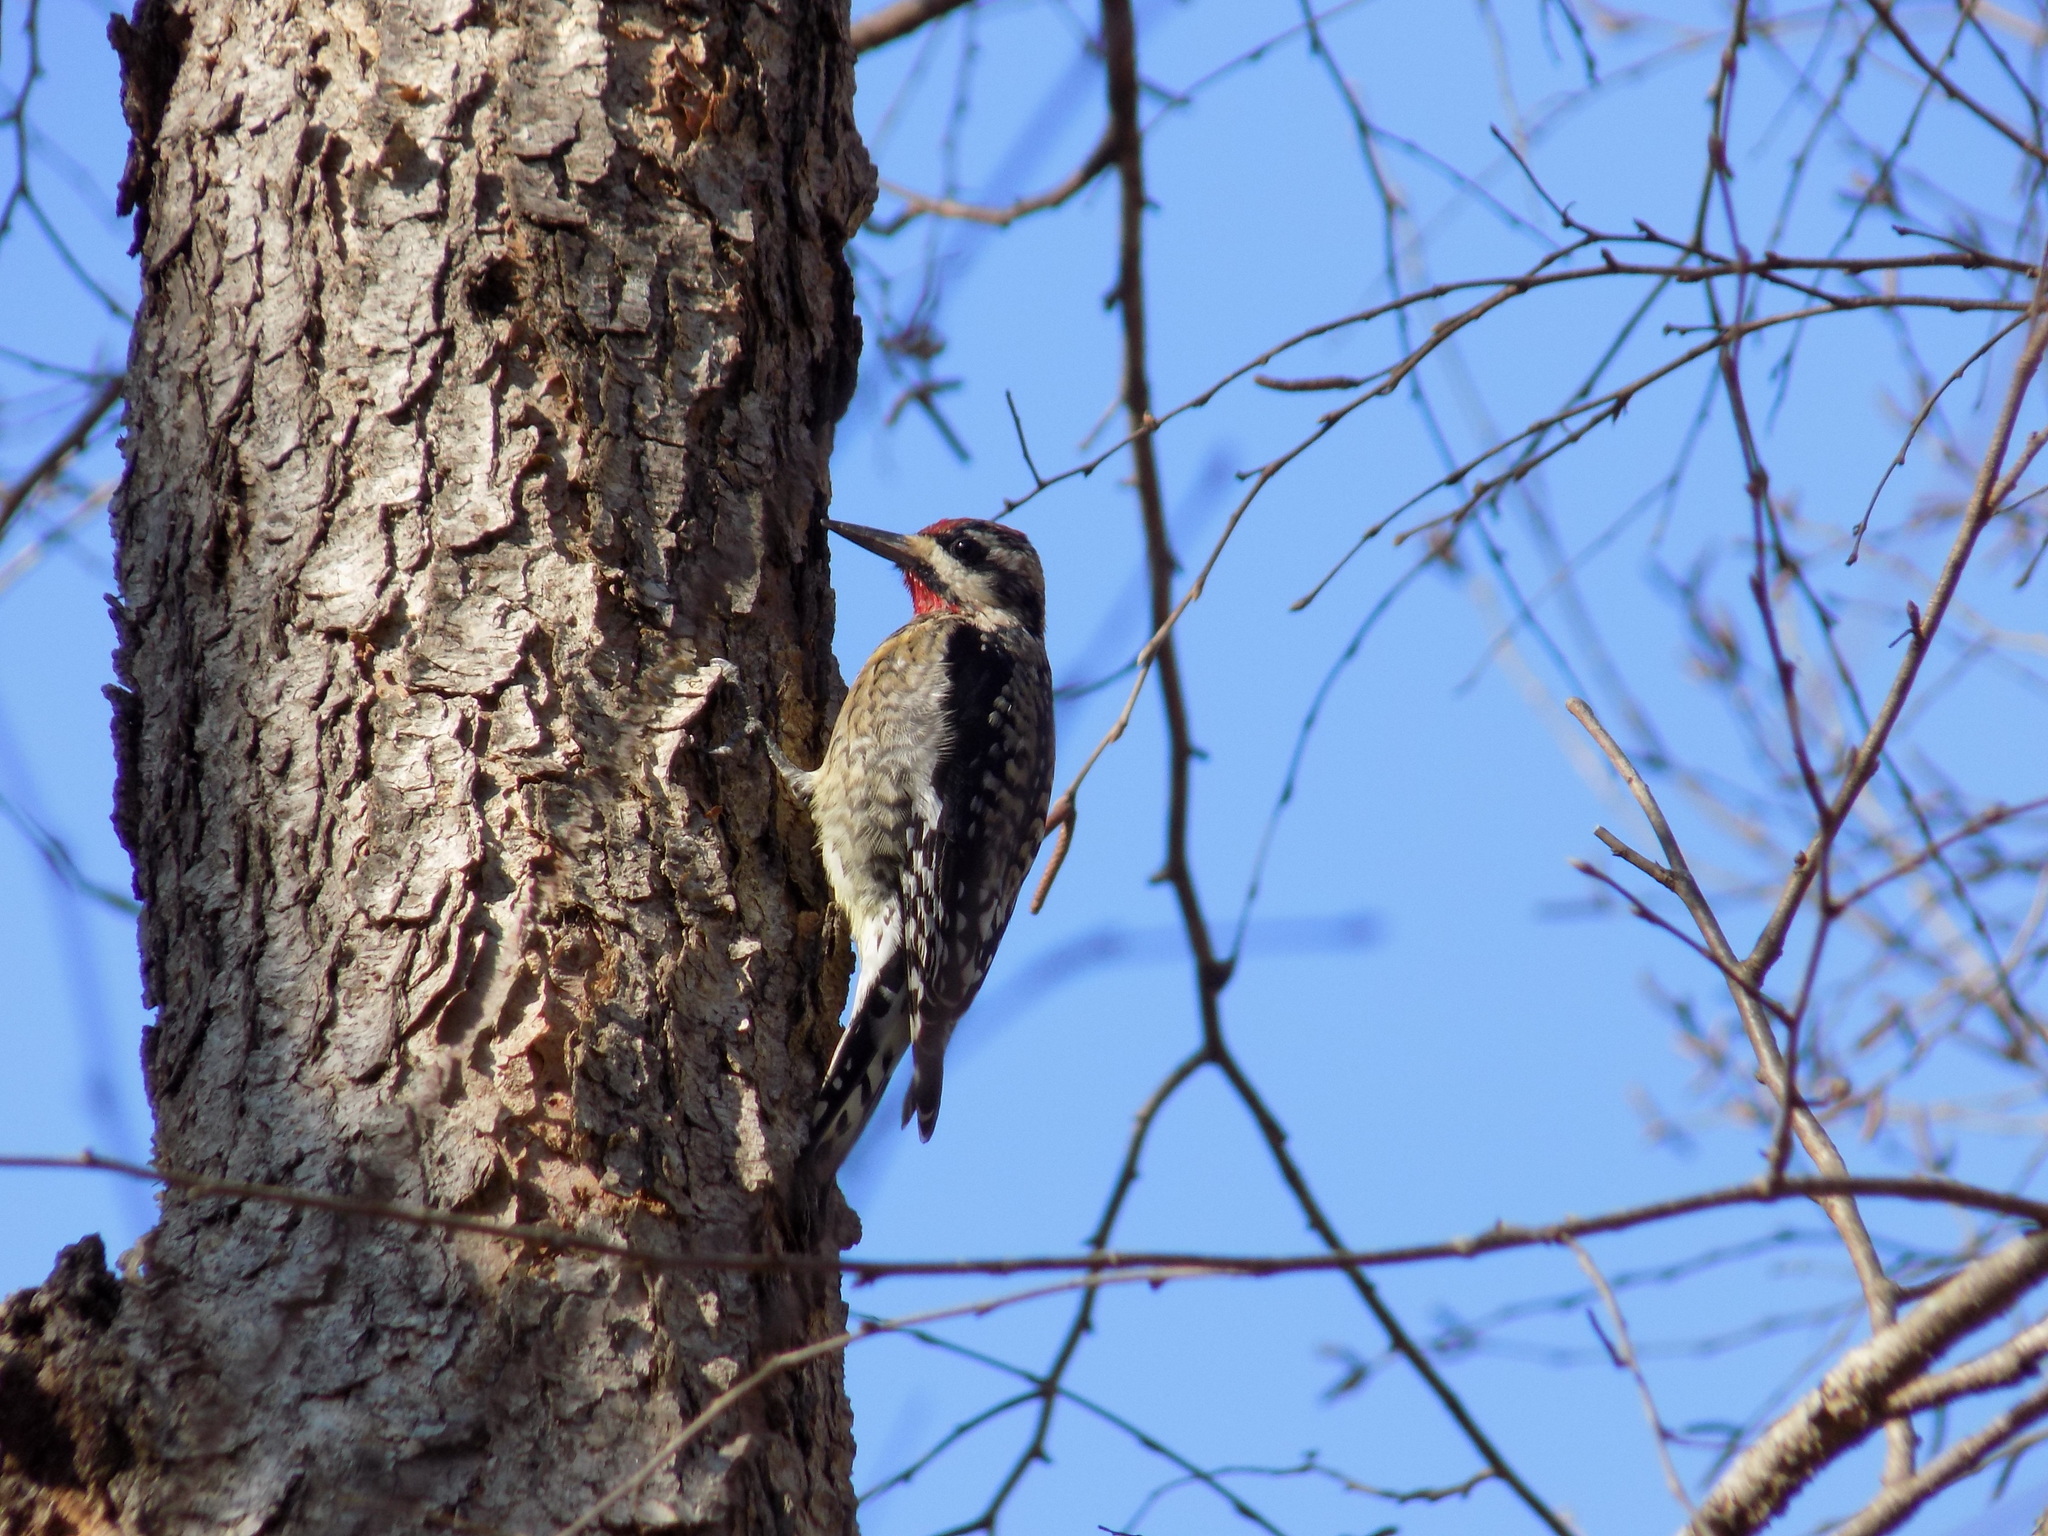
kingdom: Animalia
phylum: Chordata
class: Aves
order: Piciformes
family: Picidae
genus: Sphyrapicus
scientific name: Sphyrapicus varius
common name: Yellow-bellied sapsucker
